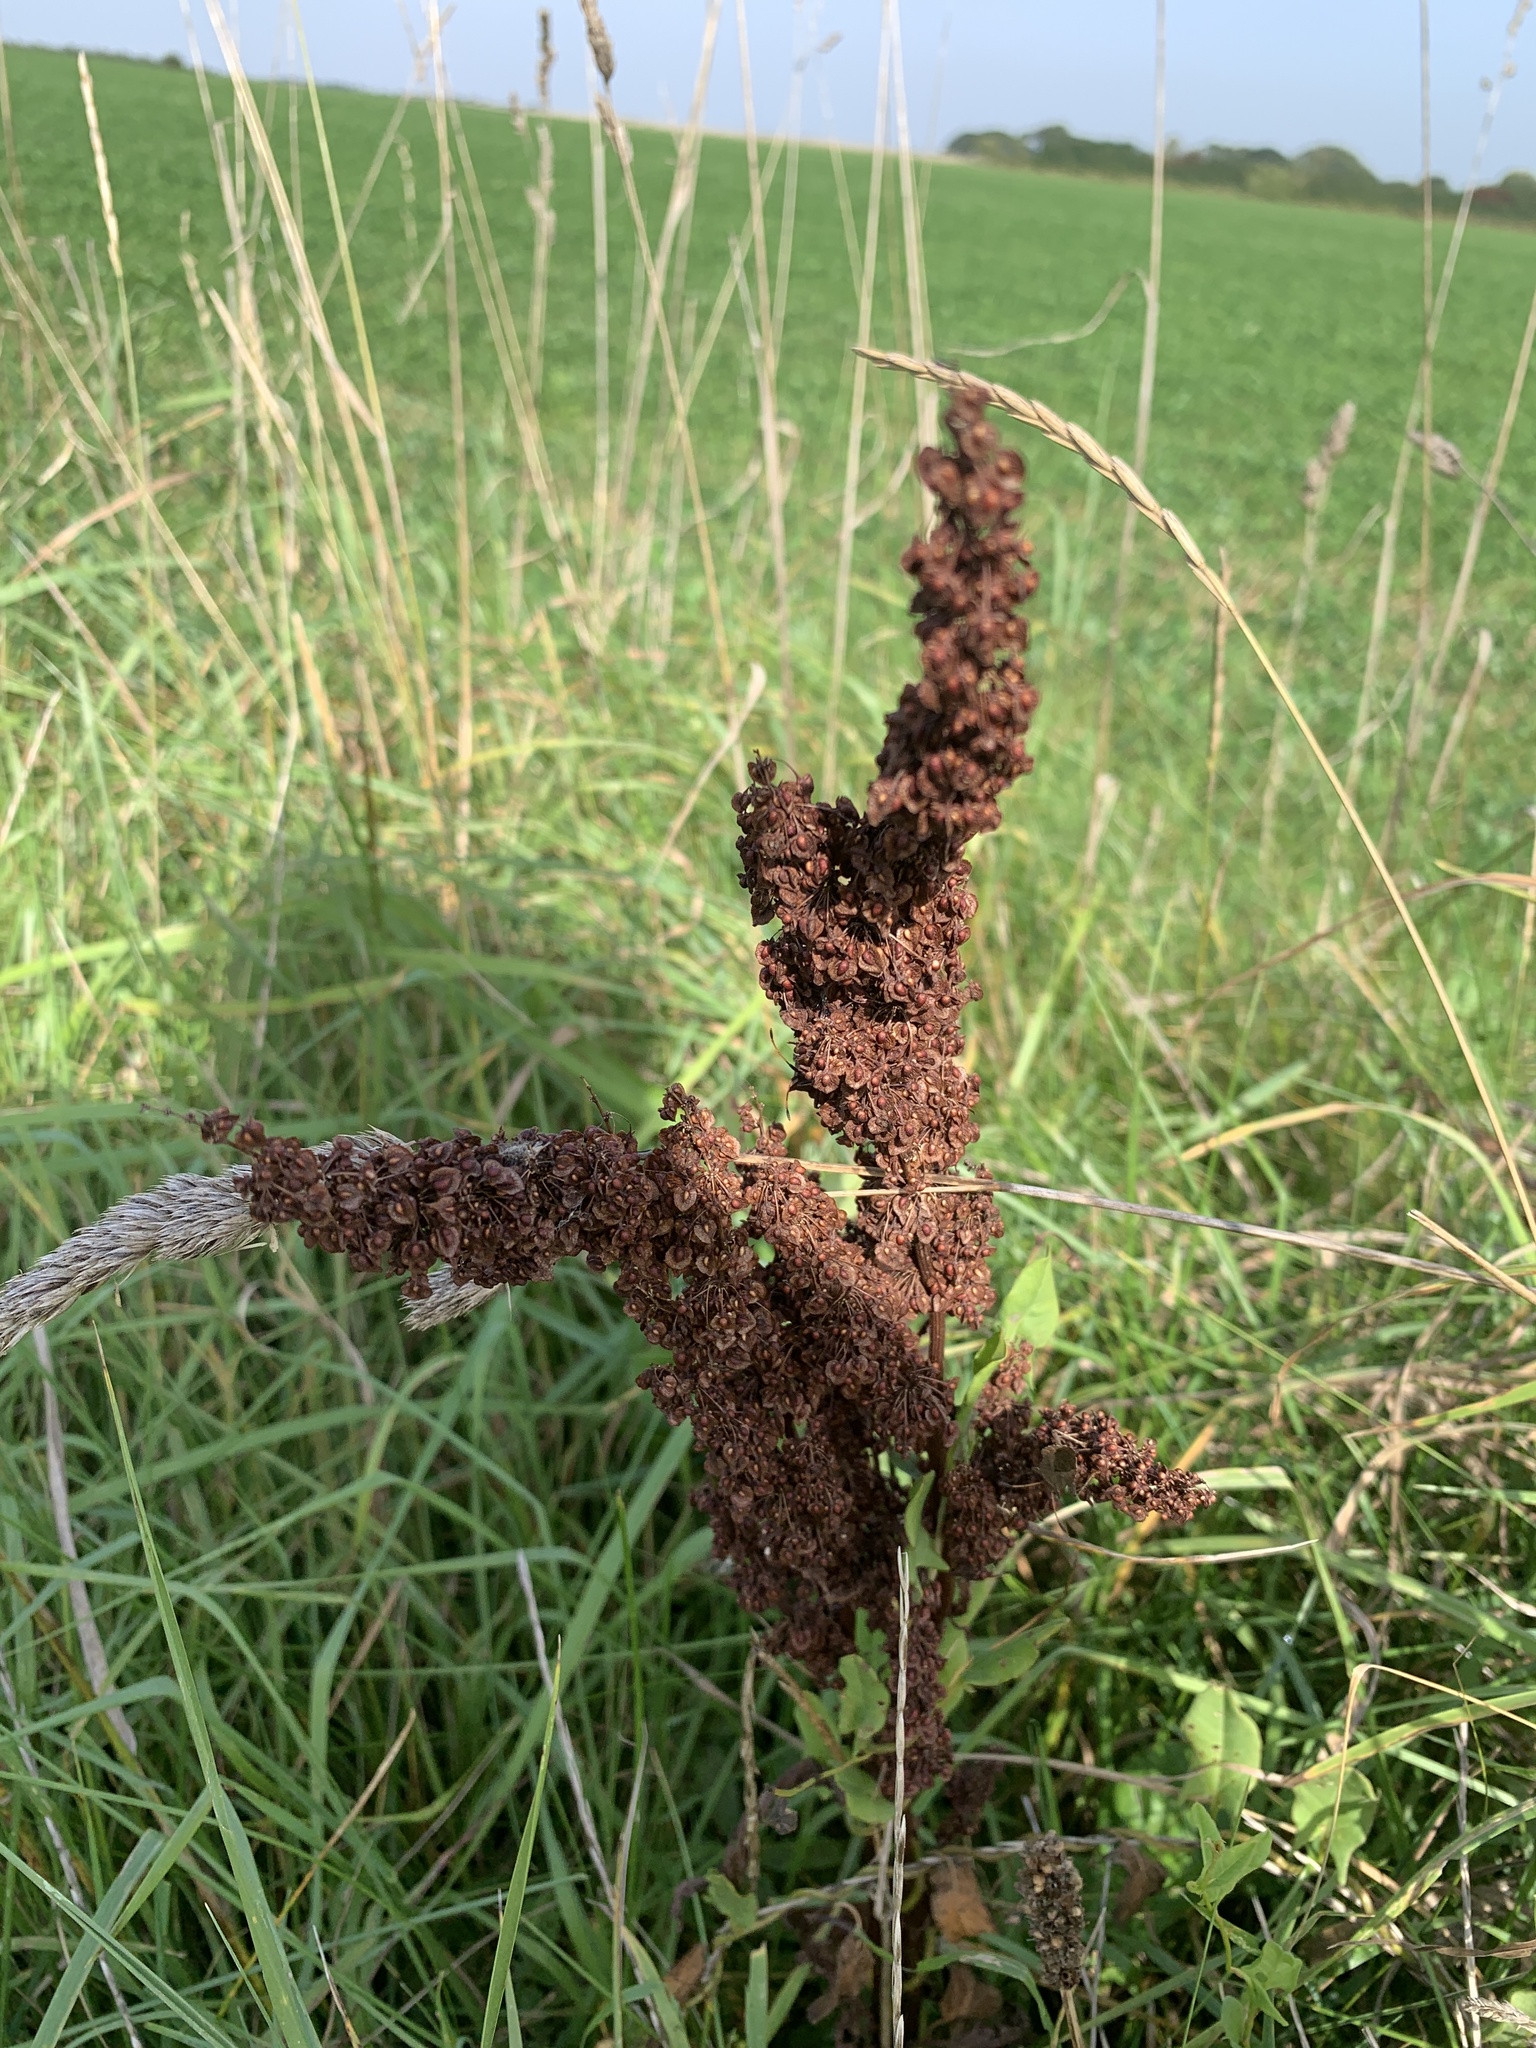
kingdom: Plantae
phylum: Tracheophyta
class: Magnoliopsida
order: Caryophyllales
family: Polygonaceae
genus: Rumex
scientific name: Rumex crispus
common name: Curled dock
